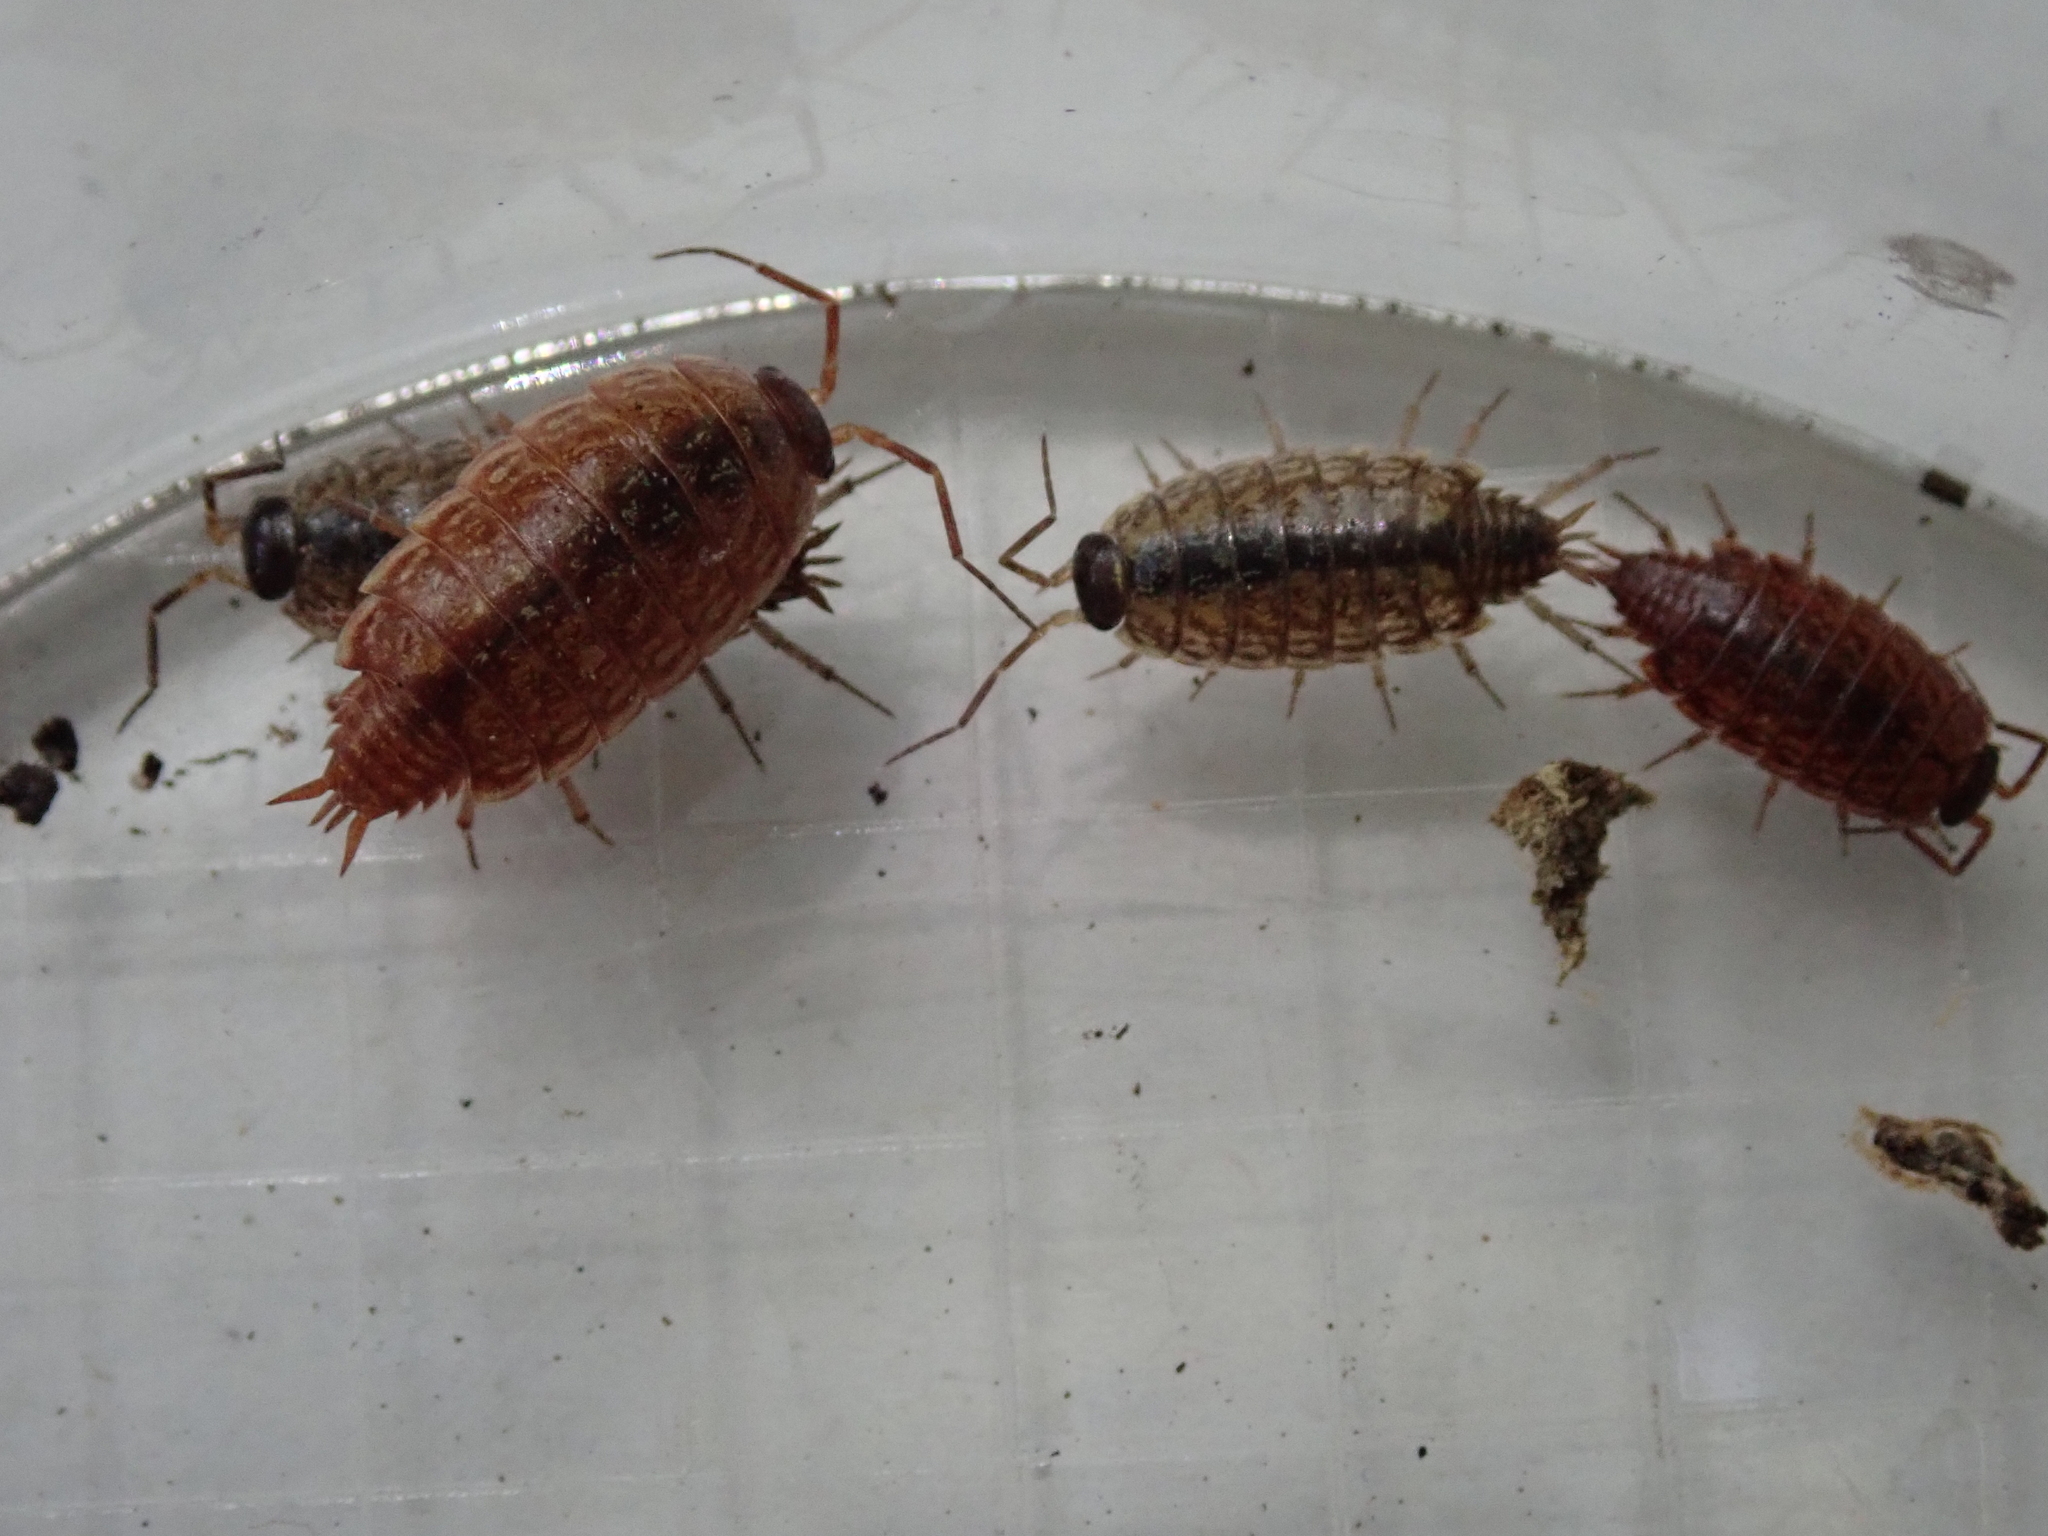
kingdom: Animalia
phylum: Arthropoda
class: Malacostraca
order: Isopoda
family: Philosciidae
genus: Philoscia
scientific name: Philoscia muscorum
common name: Common striped woodlouse
